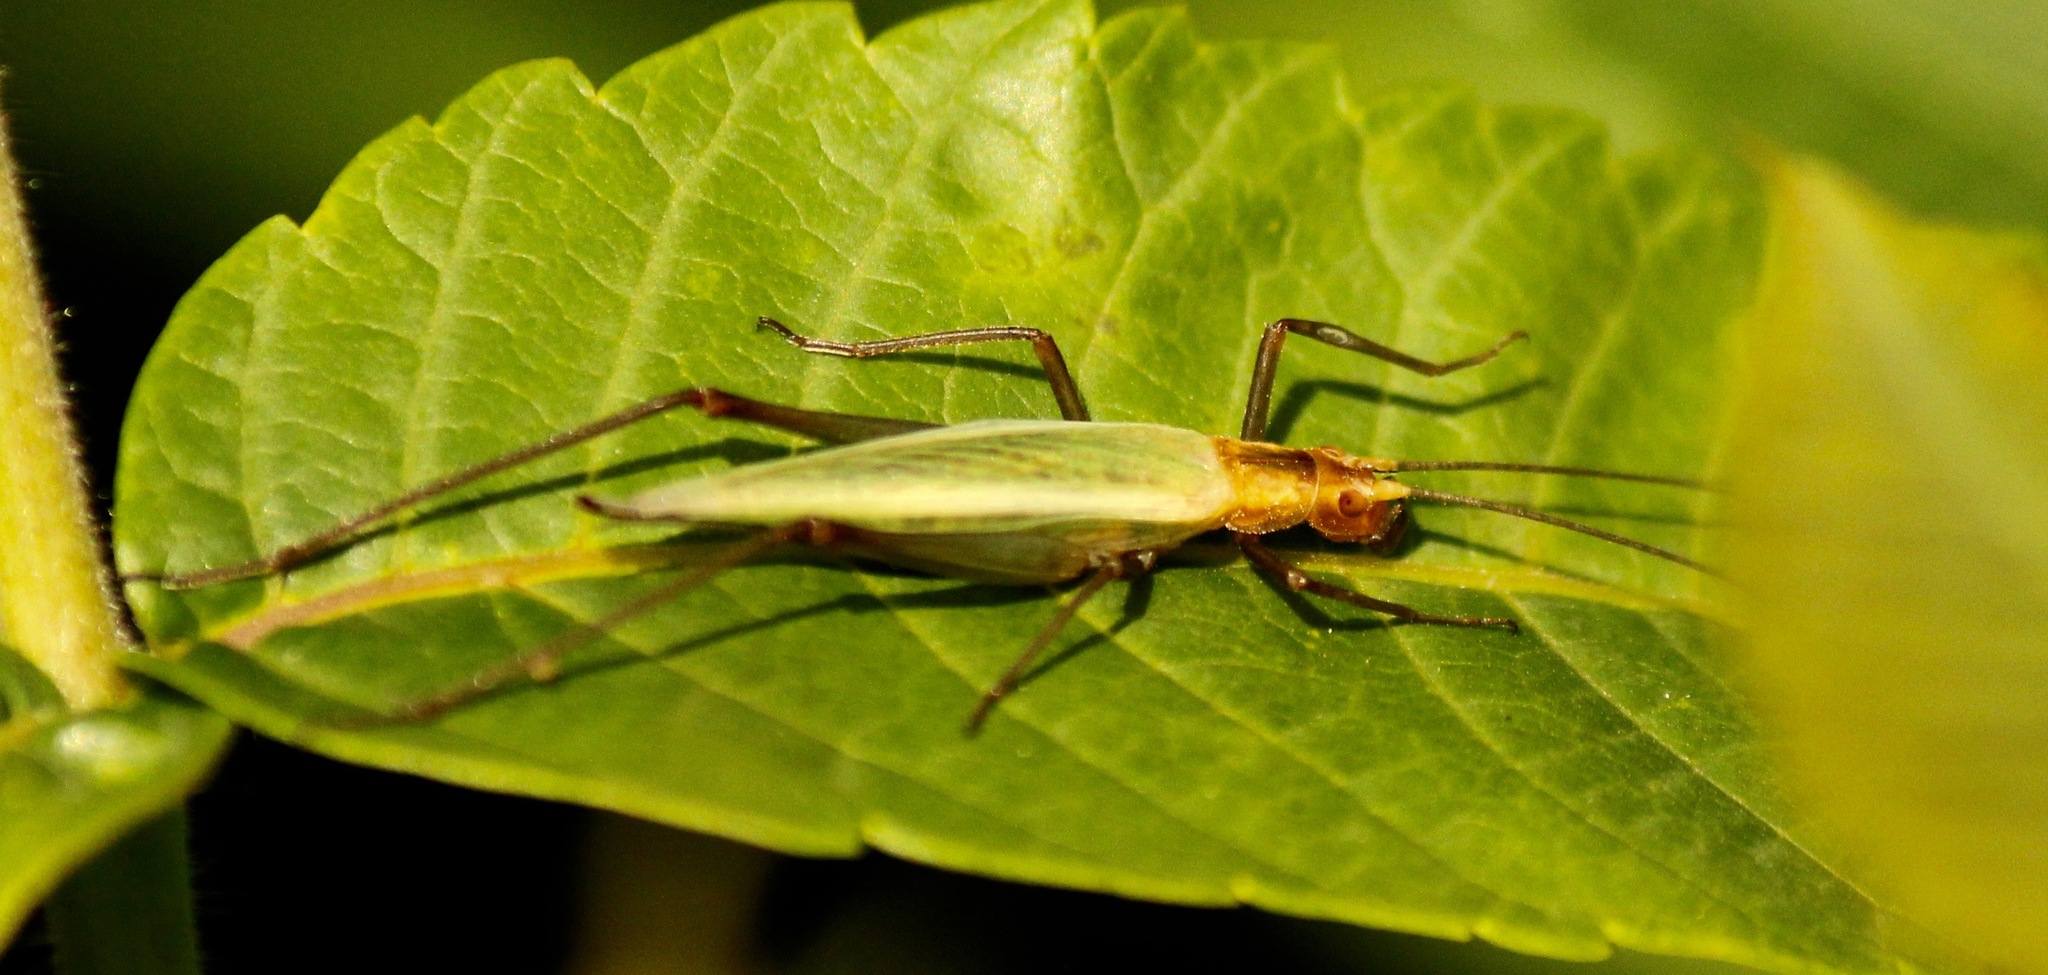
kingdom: Animalia
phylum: Arthropoda
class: Insecta
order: Orthoptera
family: Gryllidae
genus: Oecanthus
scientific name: Oecanthus pini
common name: Pine tree cricket
